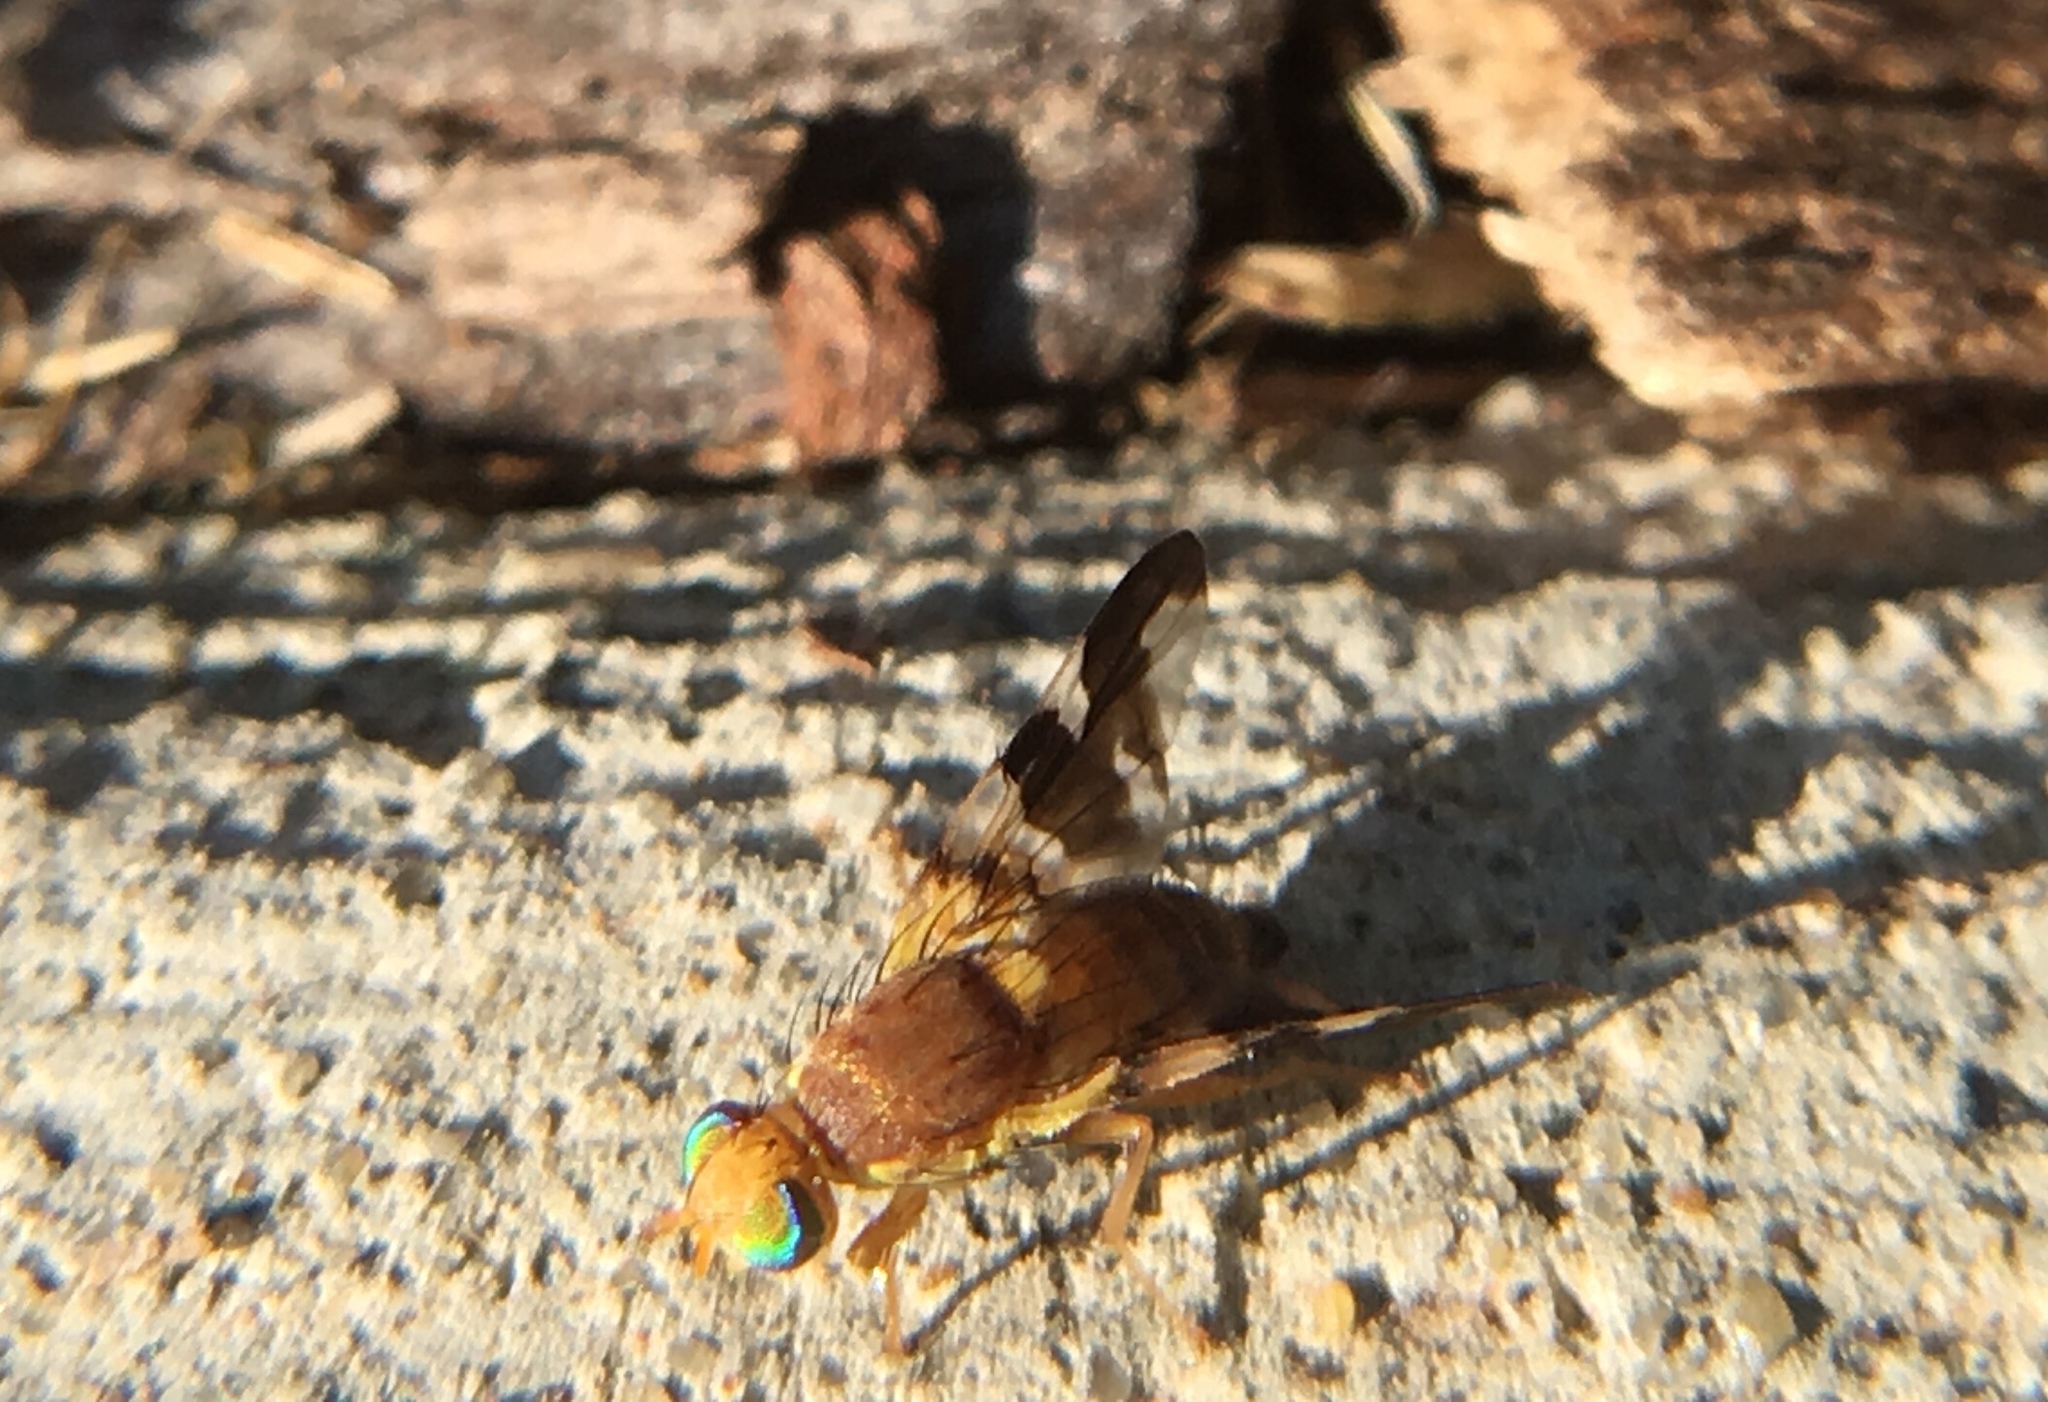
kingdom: Animalia
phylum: Arthropoda
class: Insecta
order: Diptera
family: Tephritidae
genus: Rhagoletis
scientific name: Rhagoletis suavis
